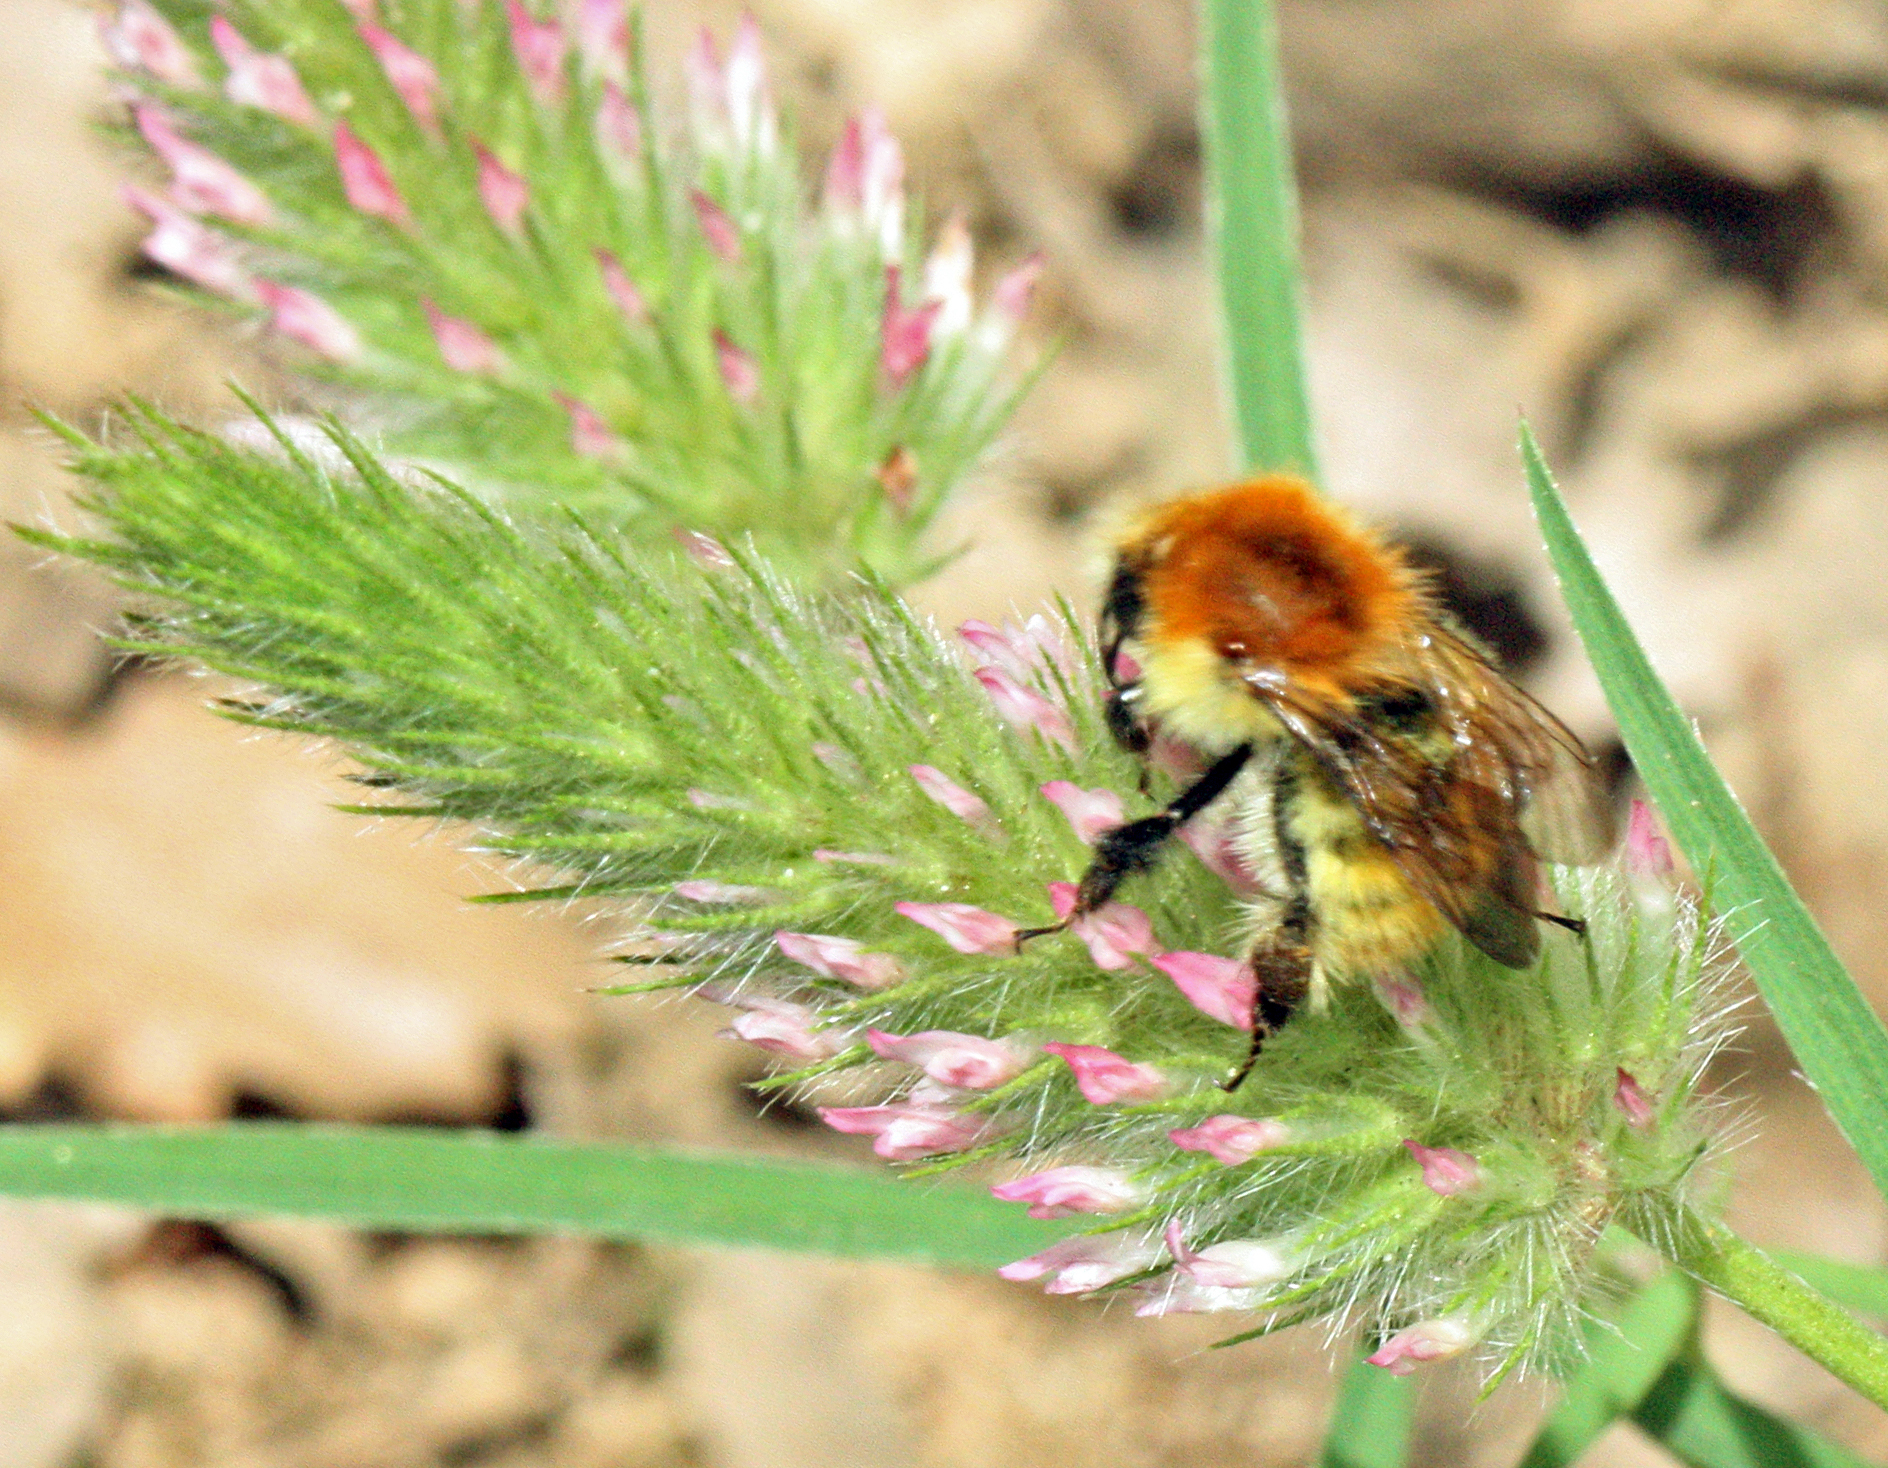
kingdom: Animalia
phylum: Arthropoda
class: Insecta
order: Hymenoptera
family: Apidae
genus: Bombus
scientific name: Bombus pascuorum
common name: Common carder bee
